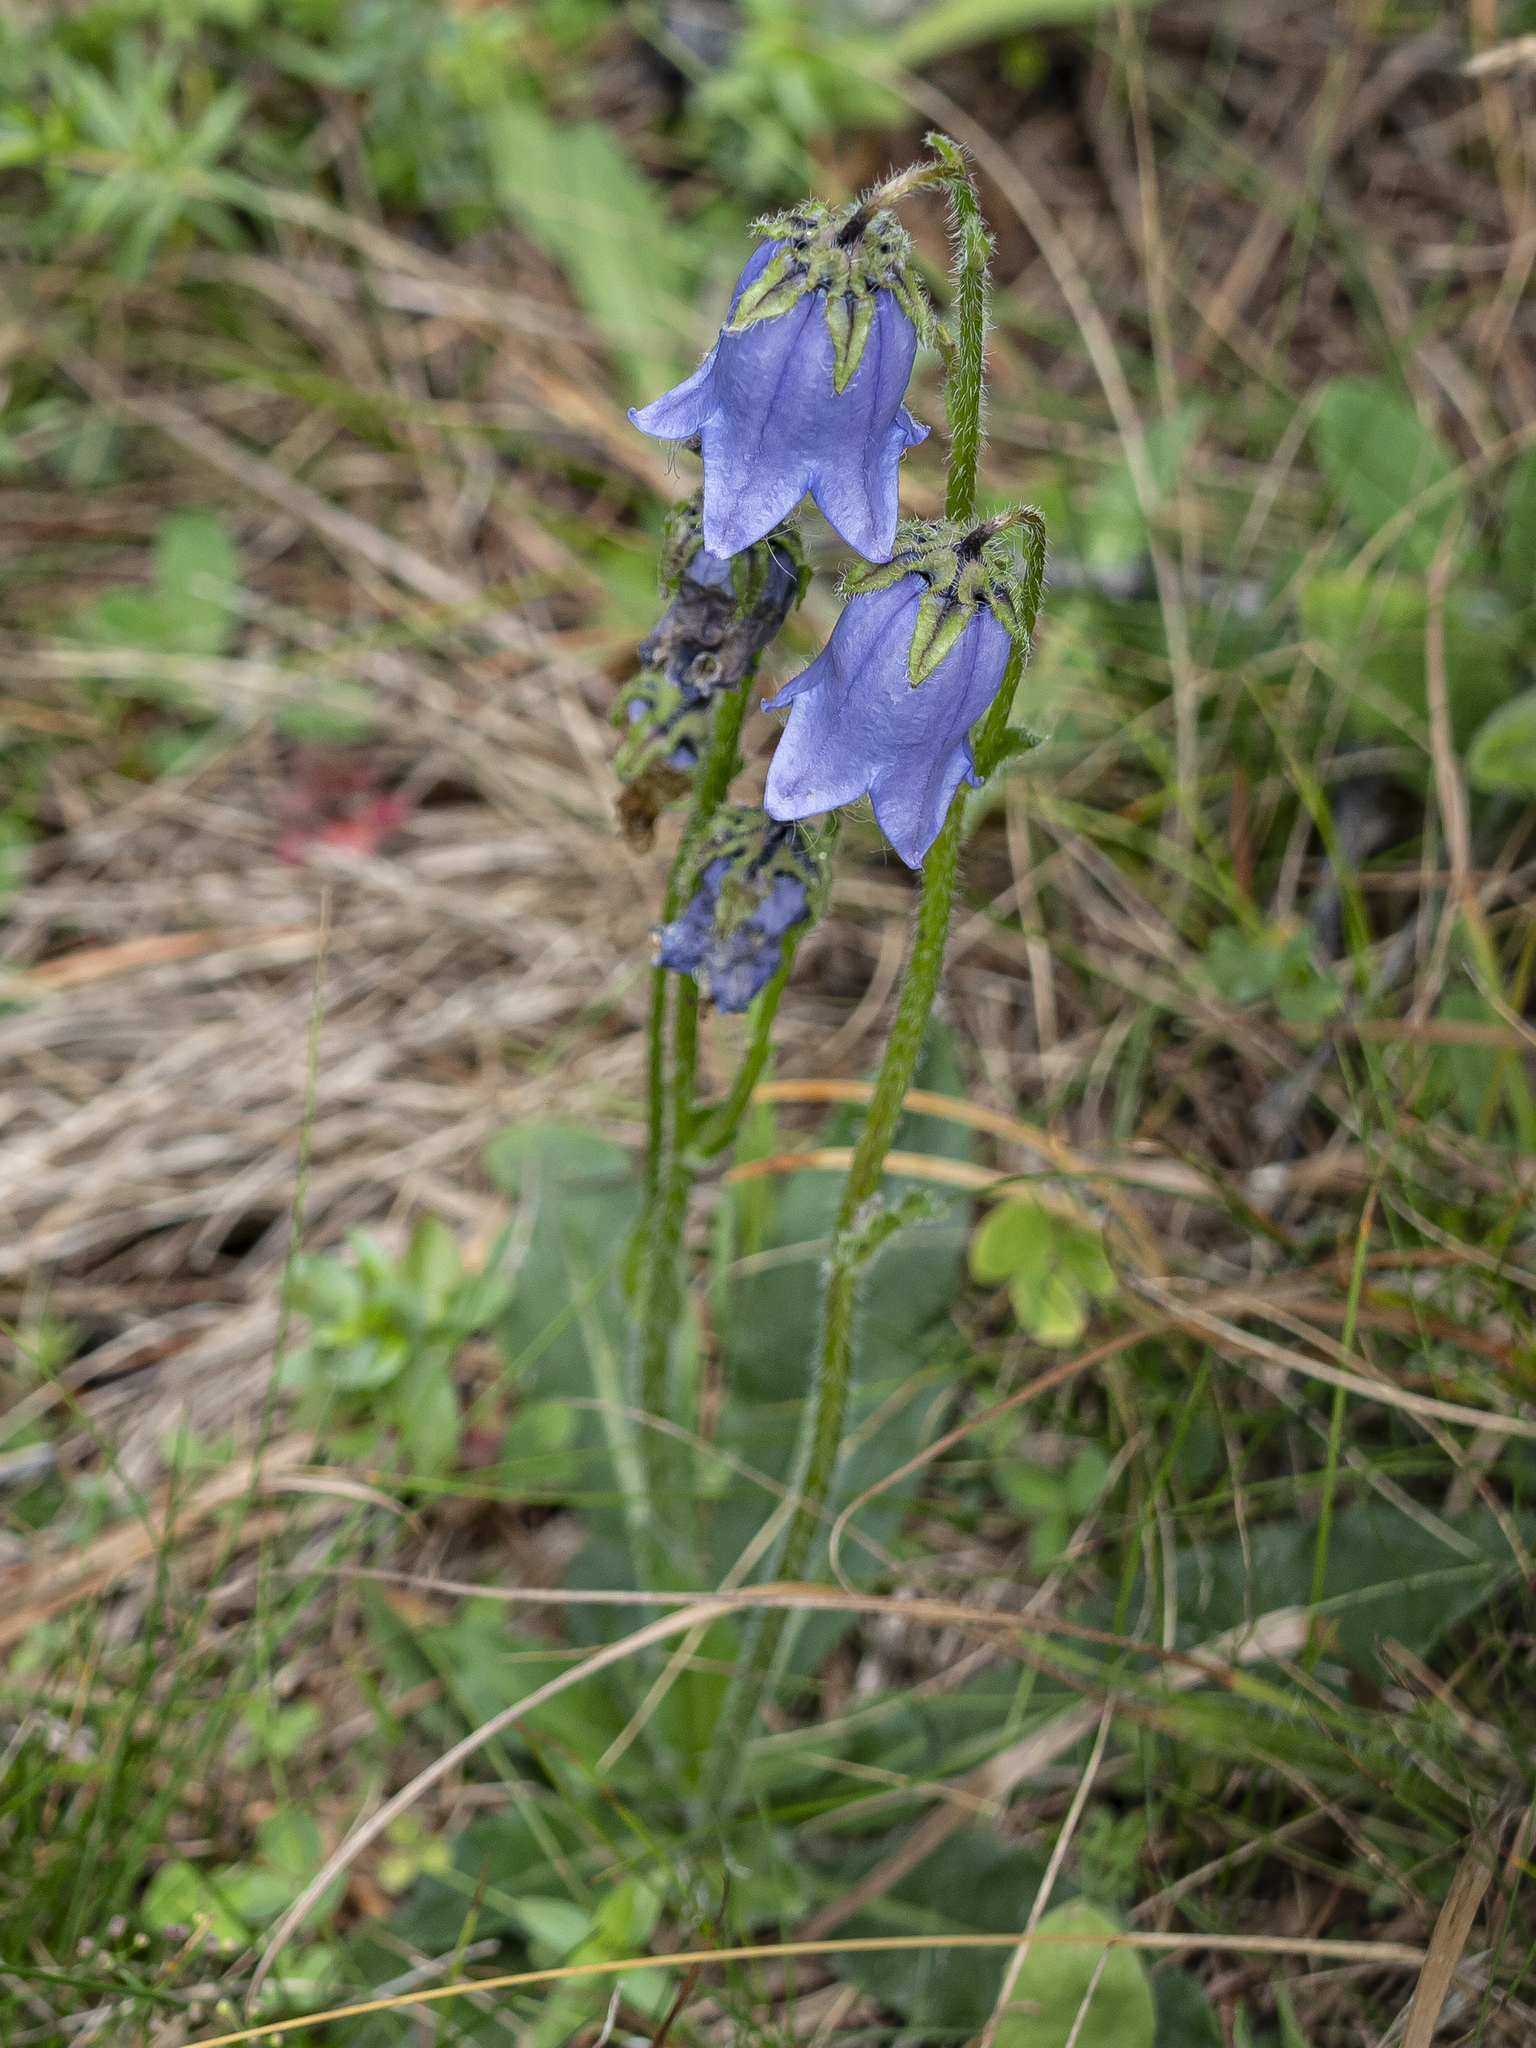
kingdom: Plantae
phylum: Tracheophyta
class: Magnoliopsida
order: Asterales
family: Campanulaceae
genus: Campanula
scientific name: Campanula barbata
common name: Bearded bellflower
